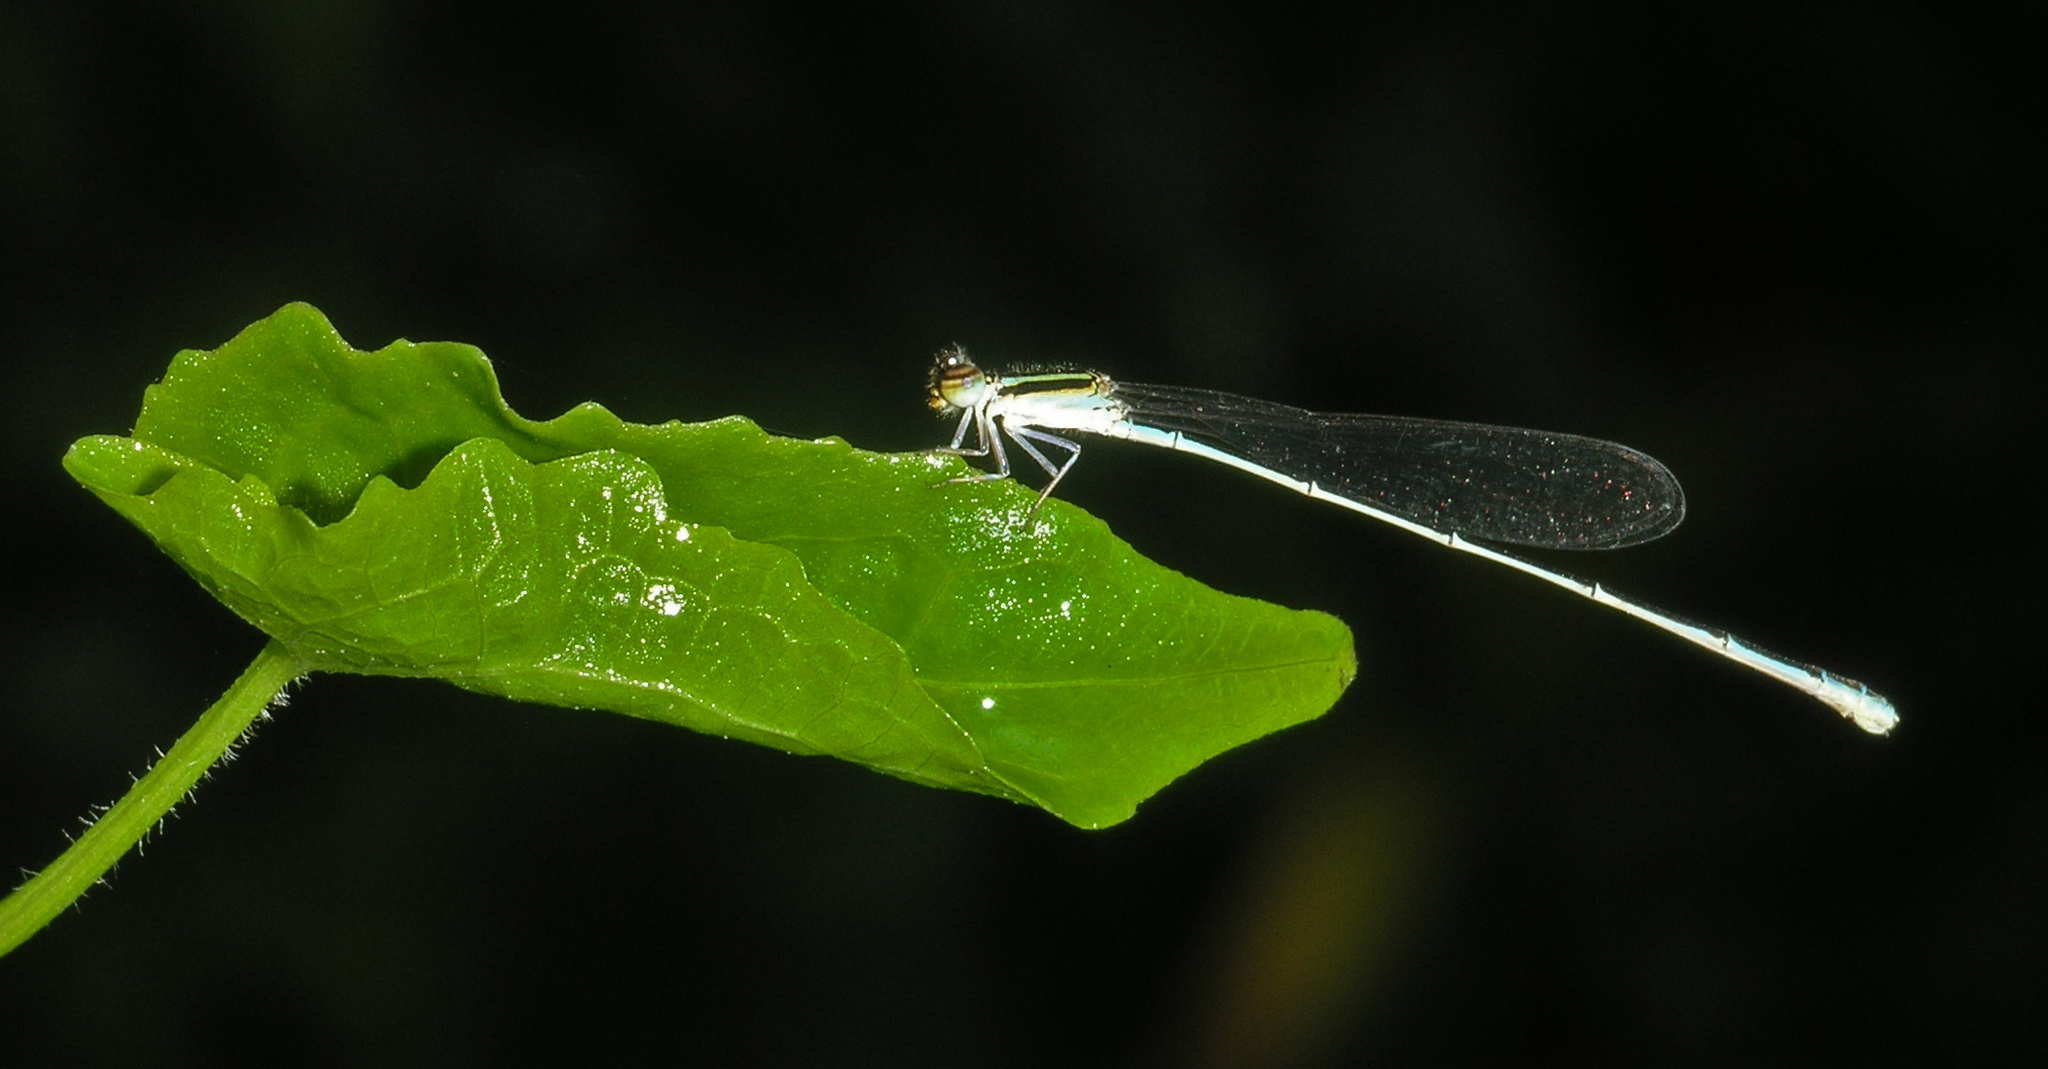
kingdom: Animalia
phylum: Arthropoda
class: Insecta
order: Odonata
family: Coenagrionidae
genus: Aciagrion
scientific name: Aciagrion borneense
